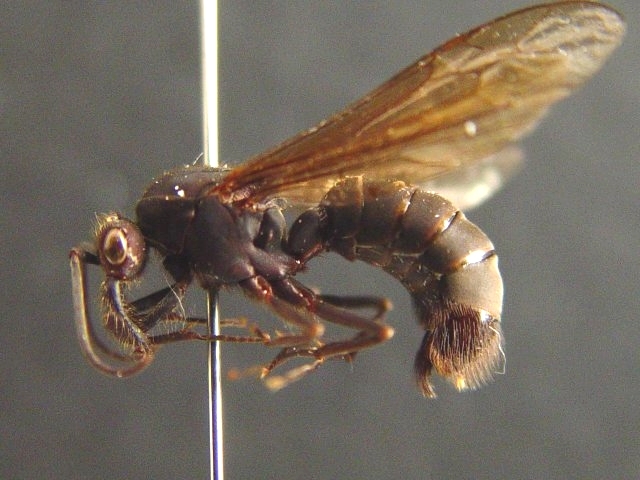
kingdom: Animalia
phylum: Arthropoda
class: Insecta
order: Hymenoptera
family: Formicidae
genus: Eciton
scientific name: Eciton mexicanum
